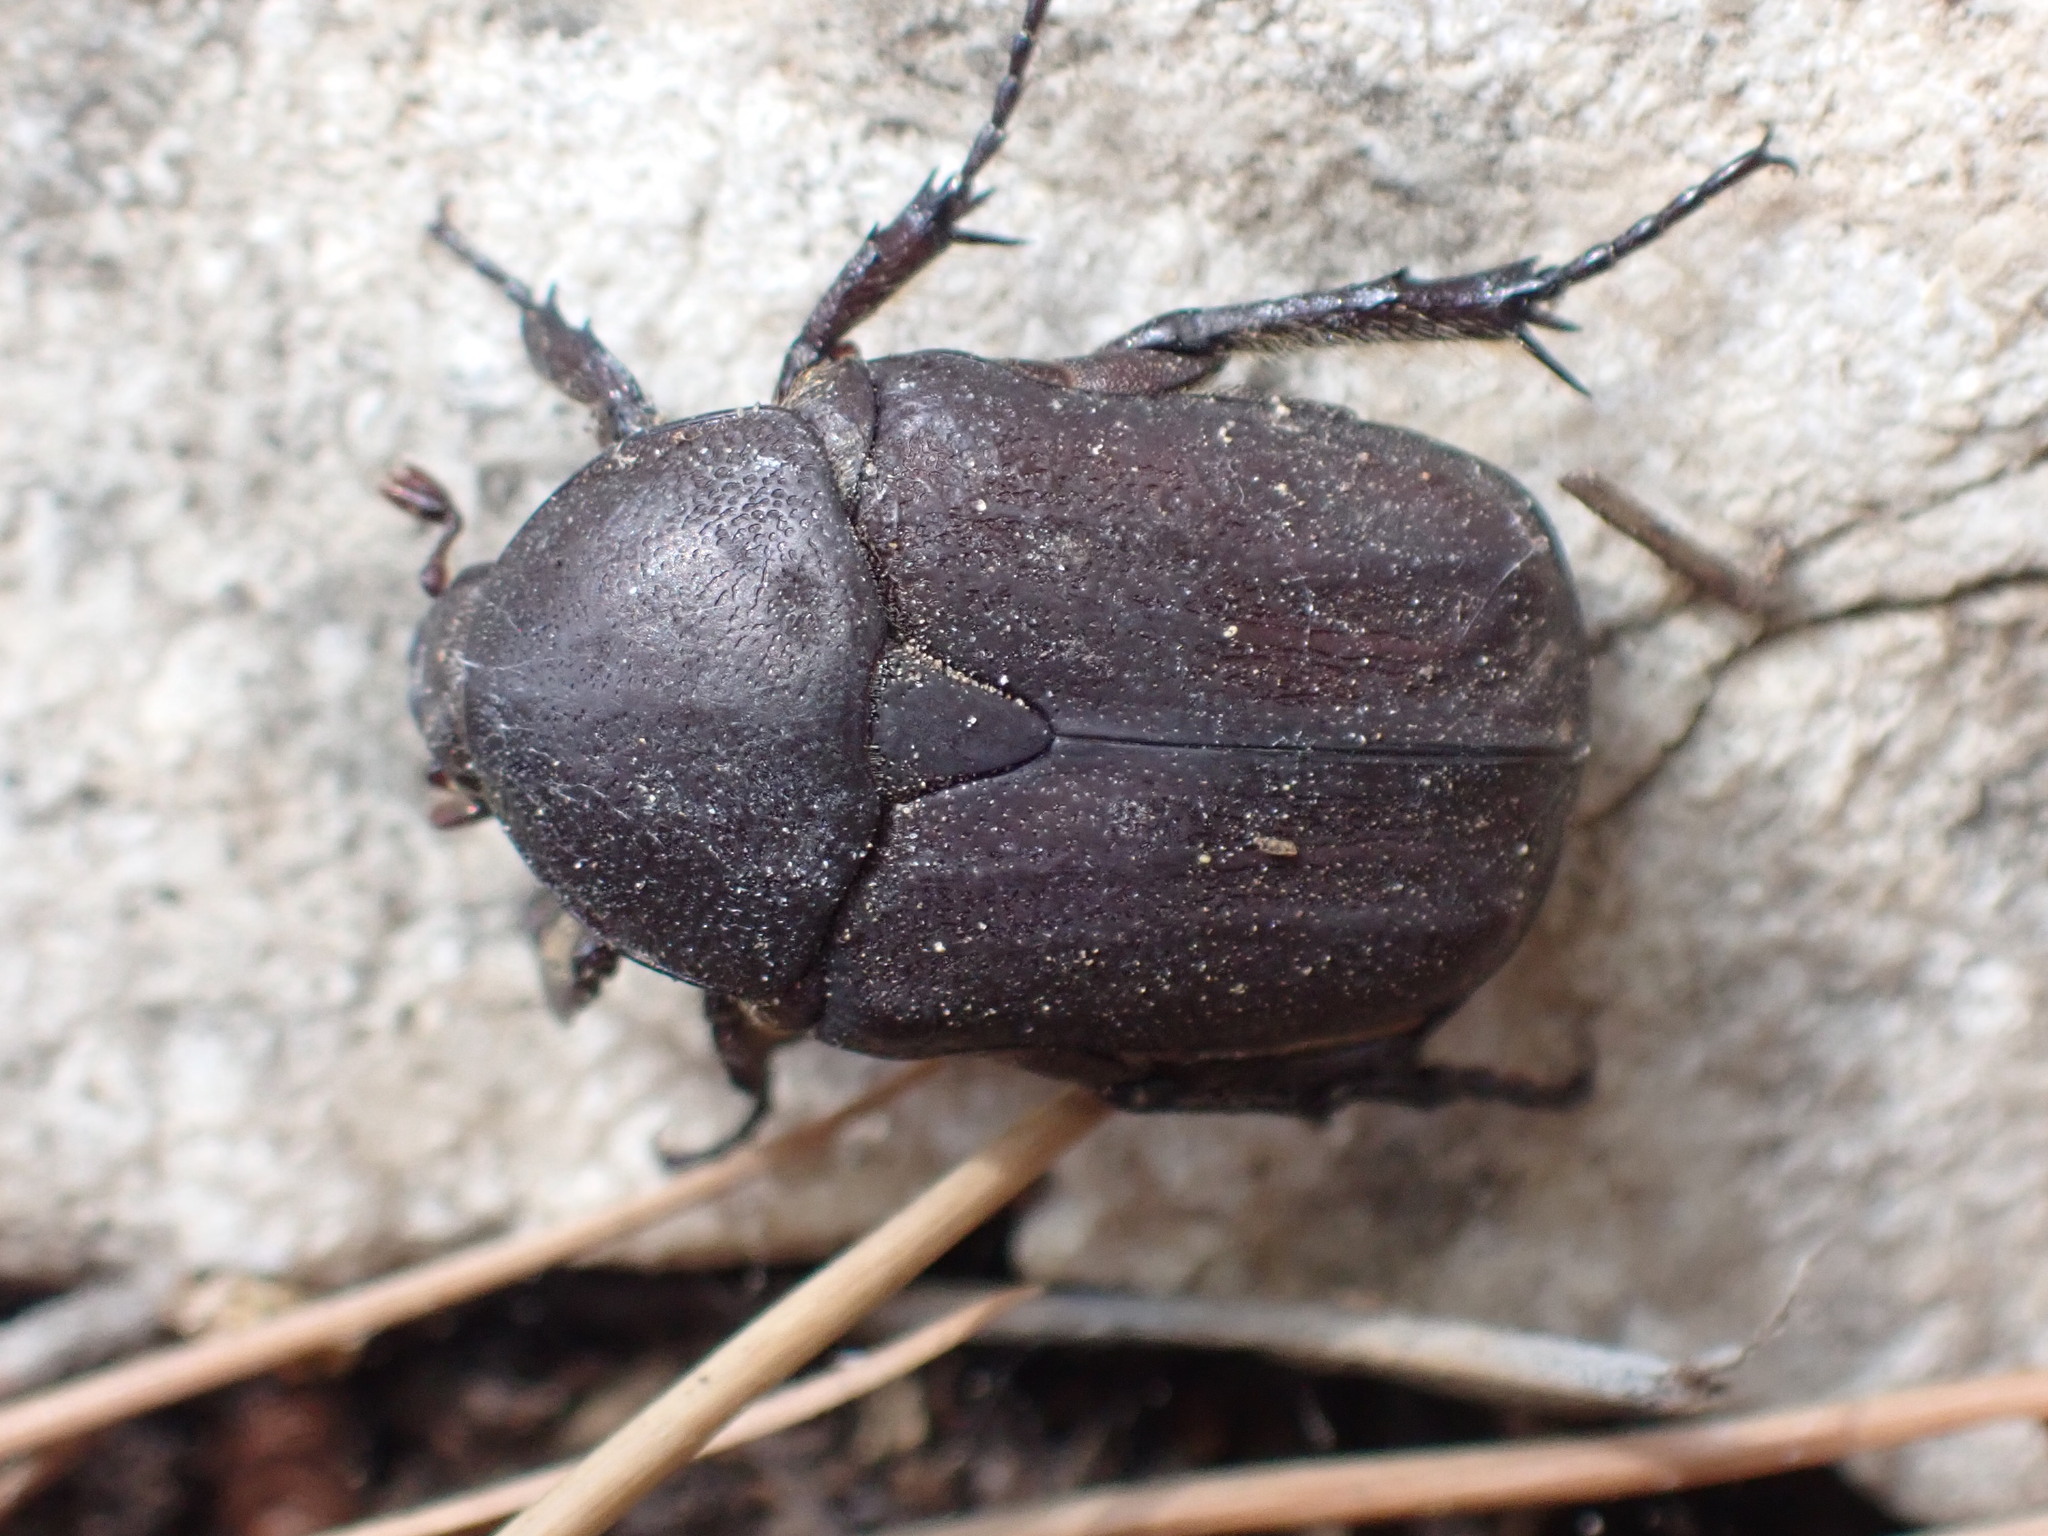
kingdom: Animalia
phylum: Arthropoda
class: Insecta
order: Coleoptera
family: Scarabaeidae
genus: Protaetia
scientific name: Protaetia oblonga
